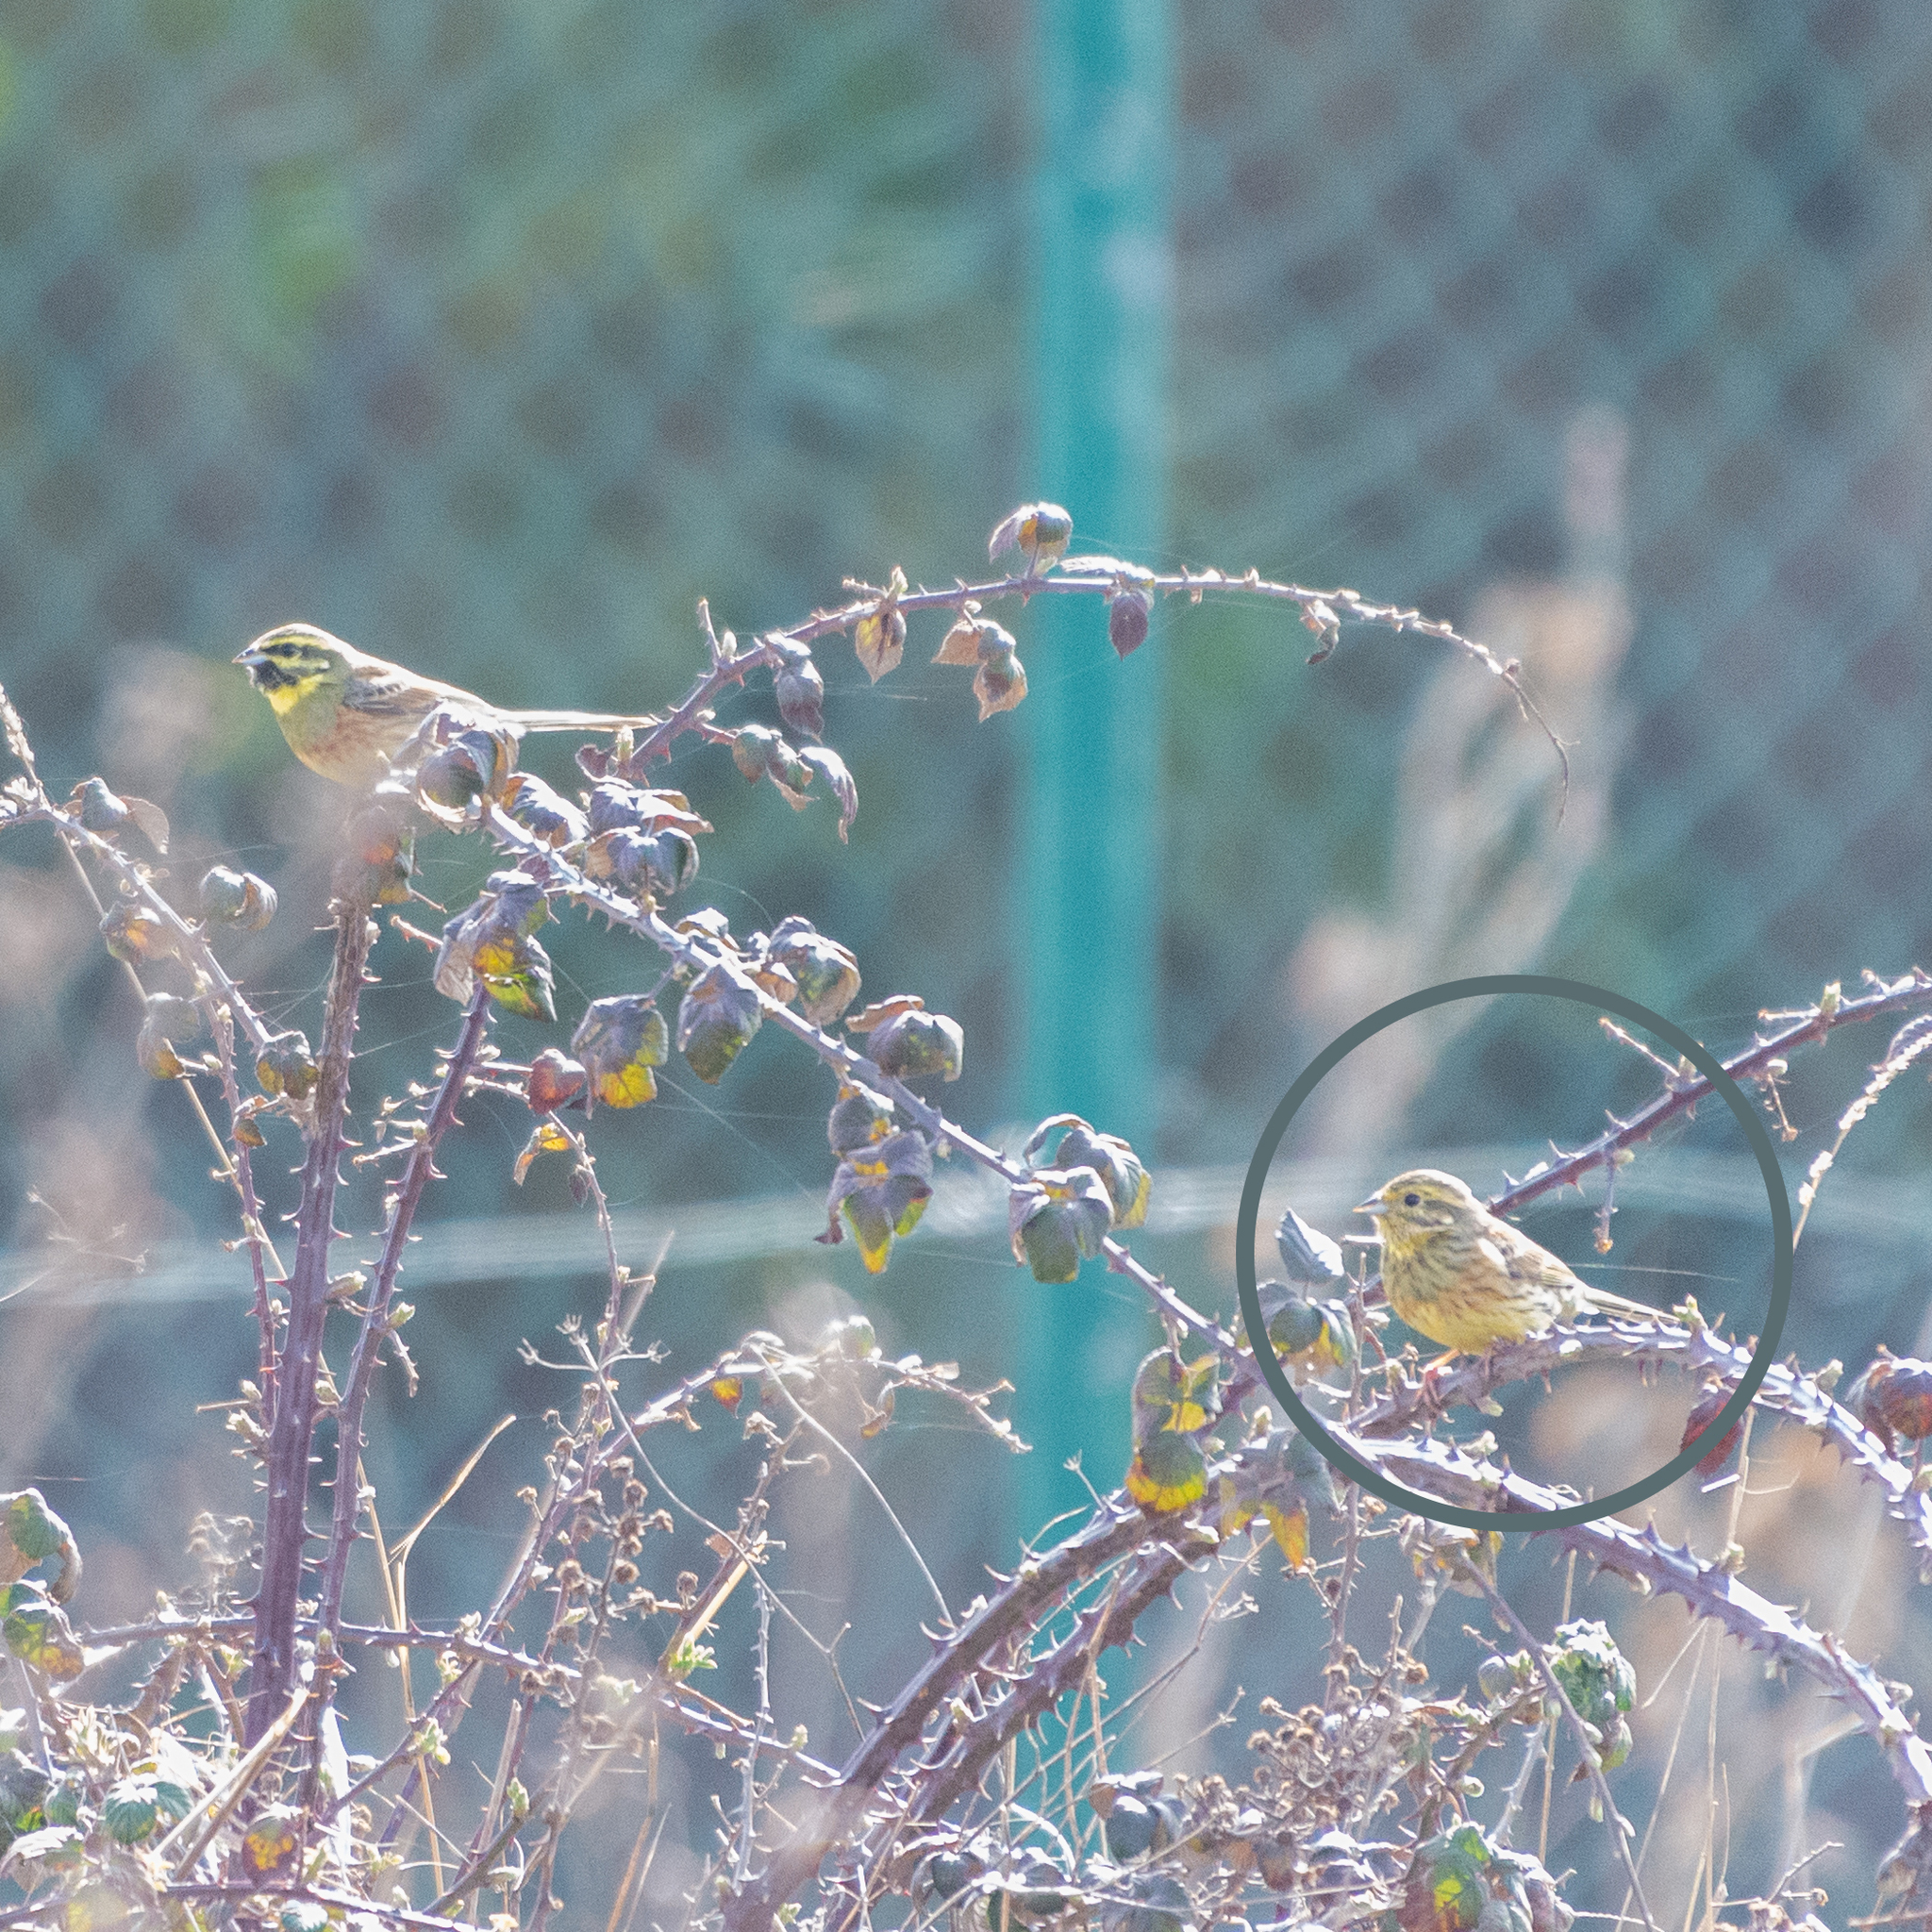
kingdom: Animalia
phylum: Chordata
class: Aves
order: Passeriformes
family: Emberizidae
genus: Emberiza
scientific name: Emberiza cirlus
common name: Cirl bunting
